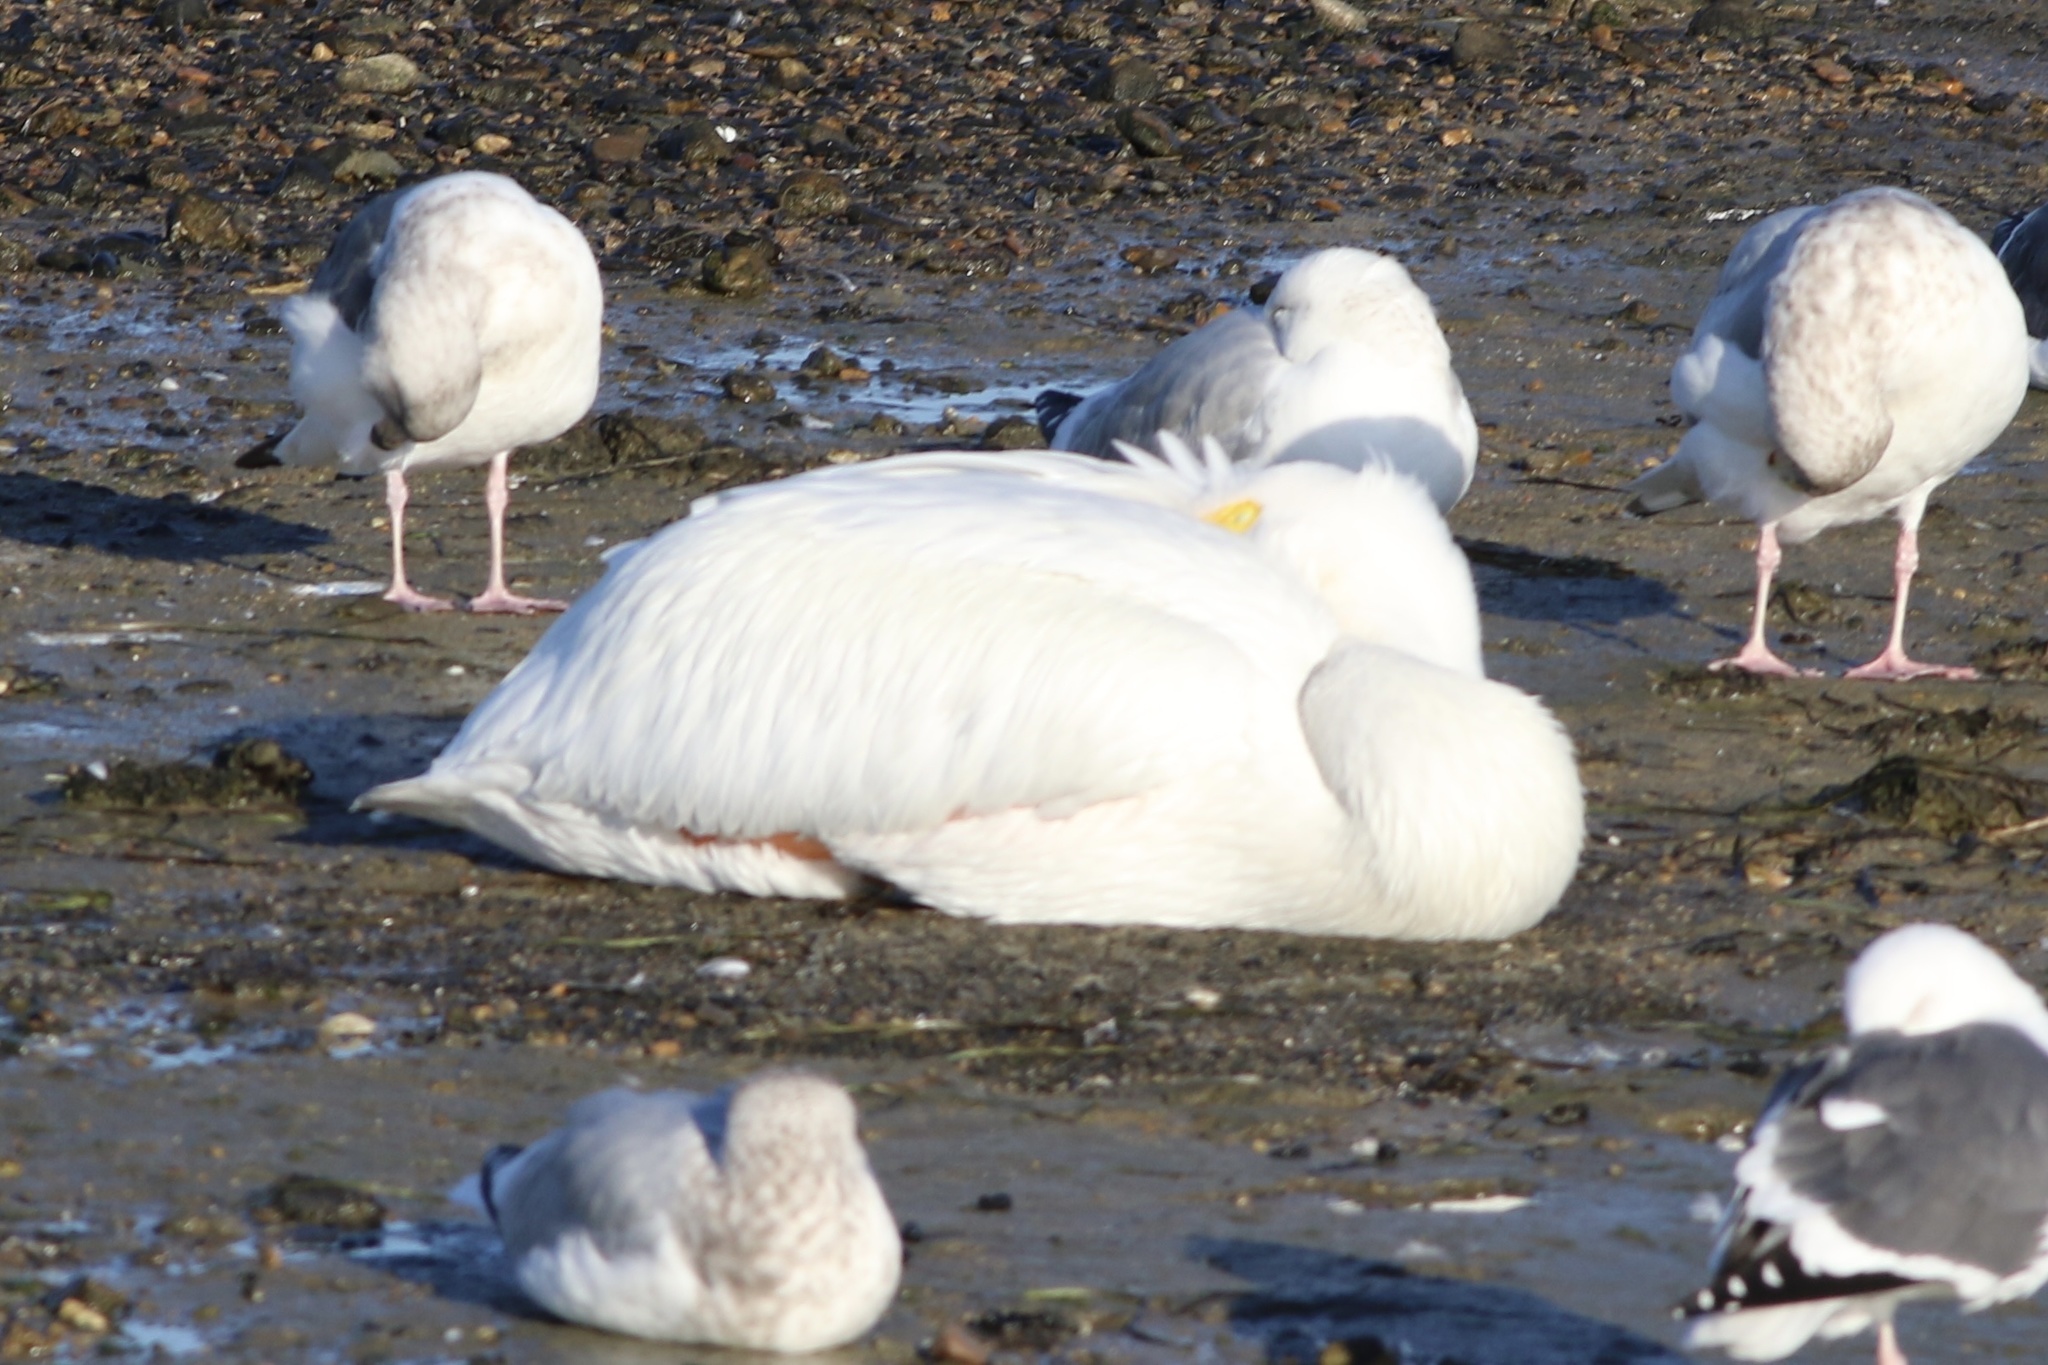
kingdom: Animalia
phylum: Chordata
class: Aves
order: Pelecaniformes
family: Pelecanidae
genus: Pelecanus
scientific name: Pelecanus erythrorhynchos
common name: American white pelican
